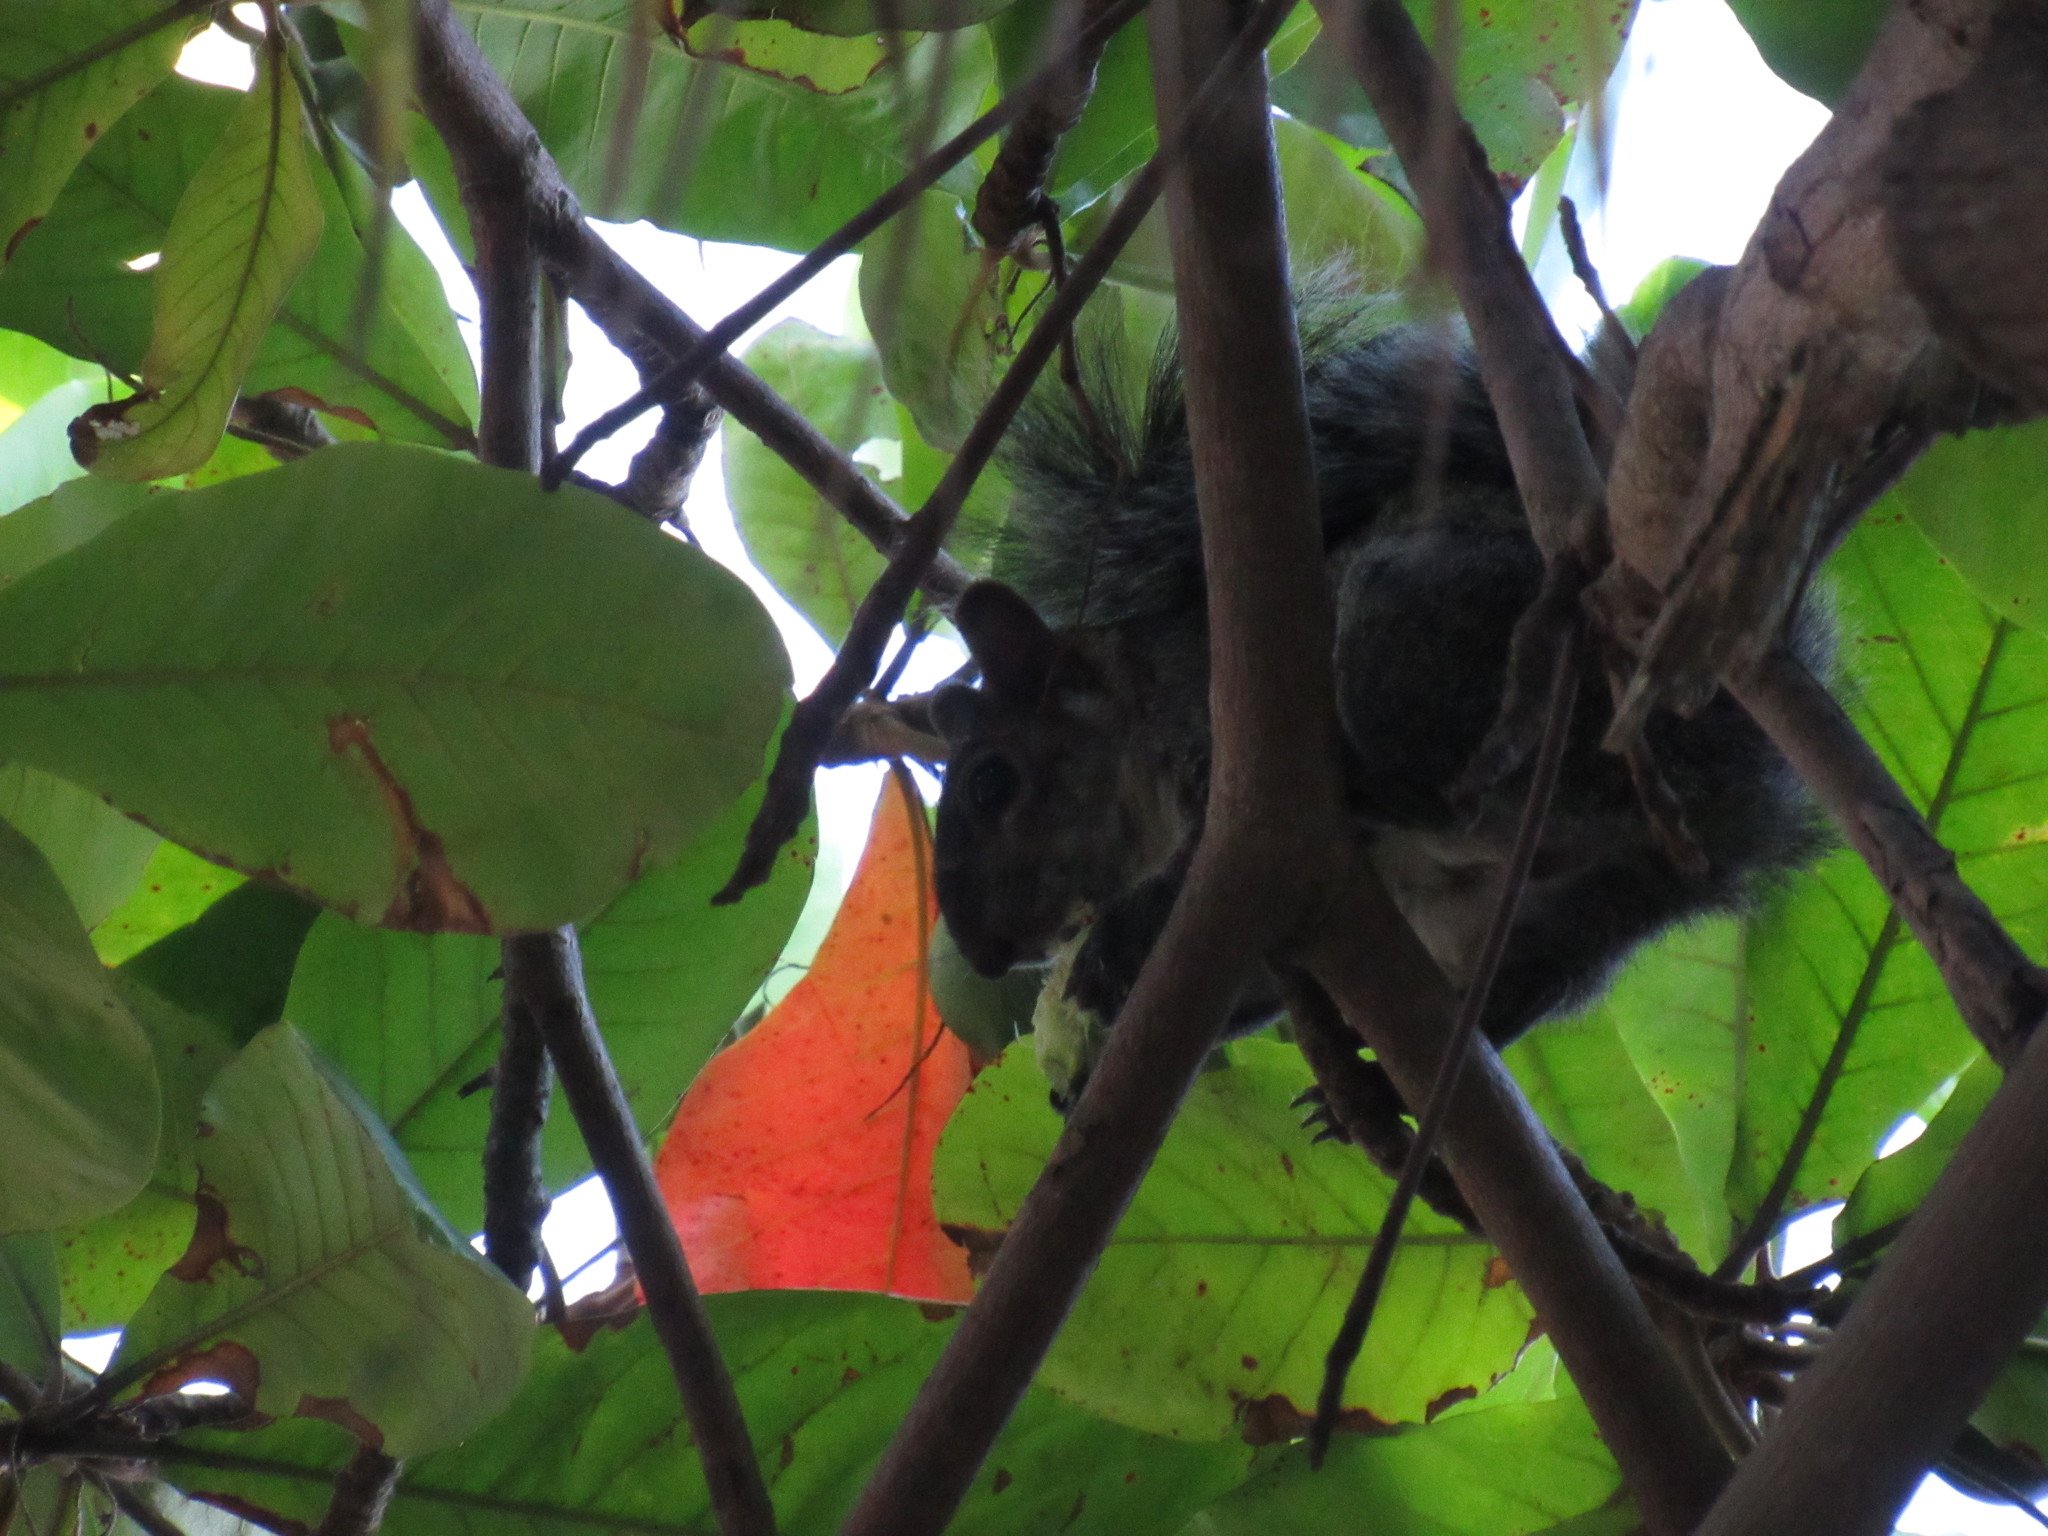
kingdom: Animalia
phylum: Chordata
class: Mammalia
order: Rodentia
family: Sciuridae
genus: Sciurus
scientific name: Sciurus colliaei
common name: Collie's squirrel
